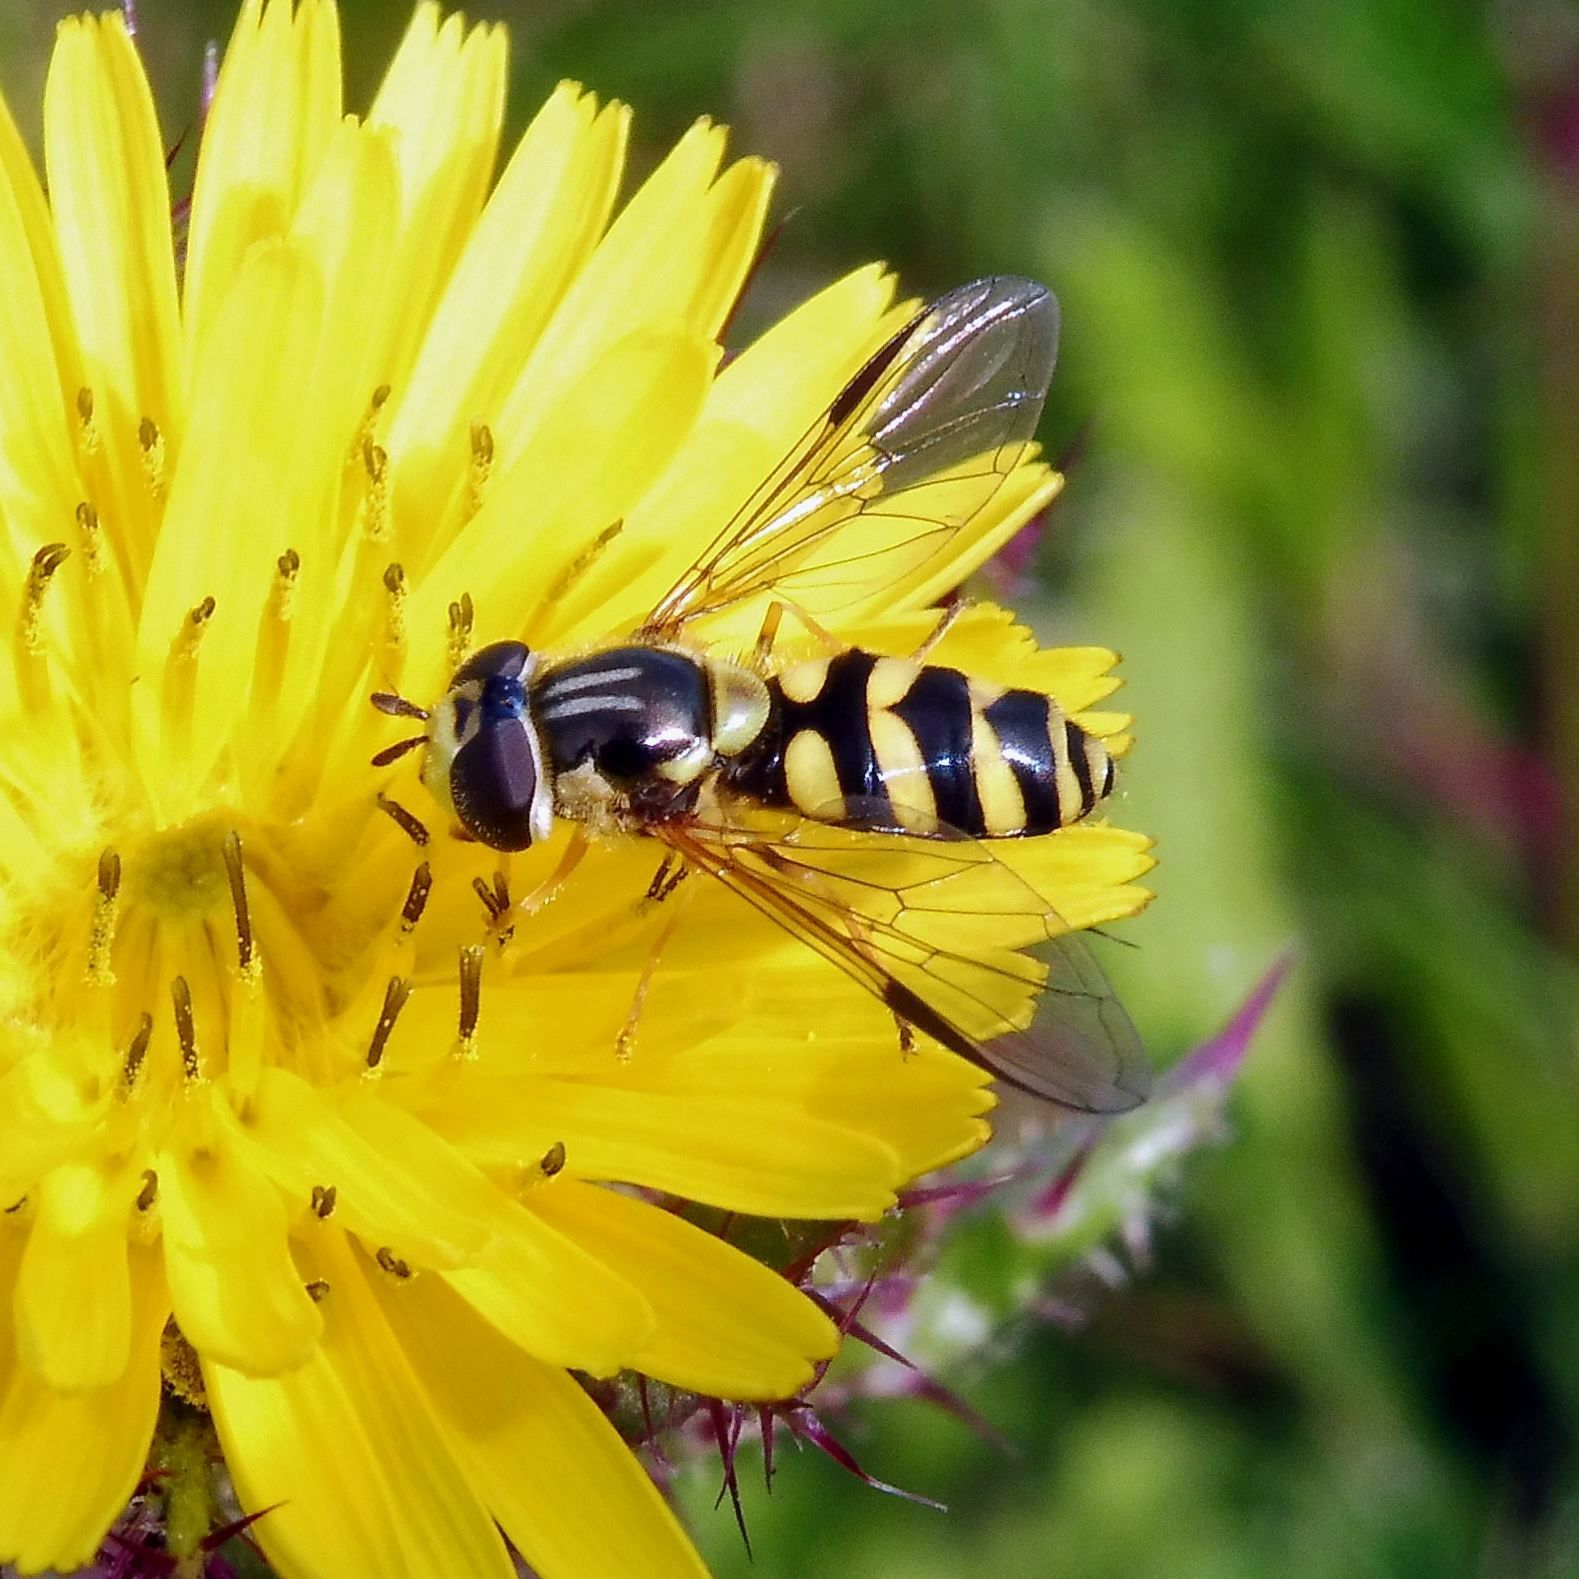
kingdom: Animalia
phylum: Arthropoda
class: Insecta
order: Diptera
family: Syrphidae
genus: Dasysyrphus
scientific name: Dasysyrphus albostriatus
